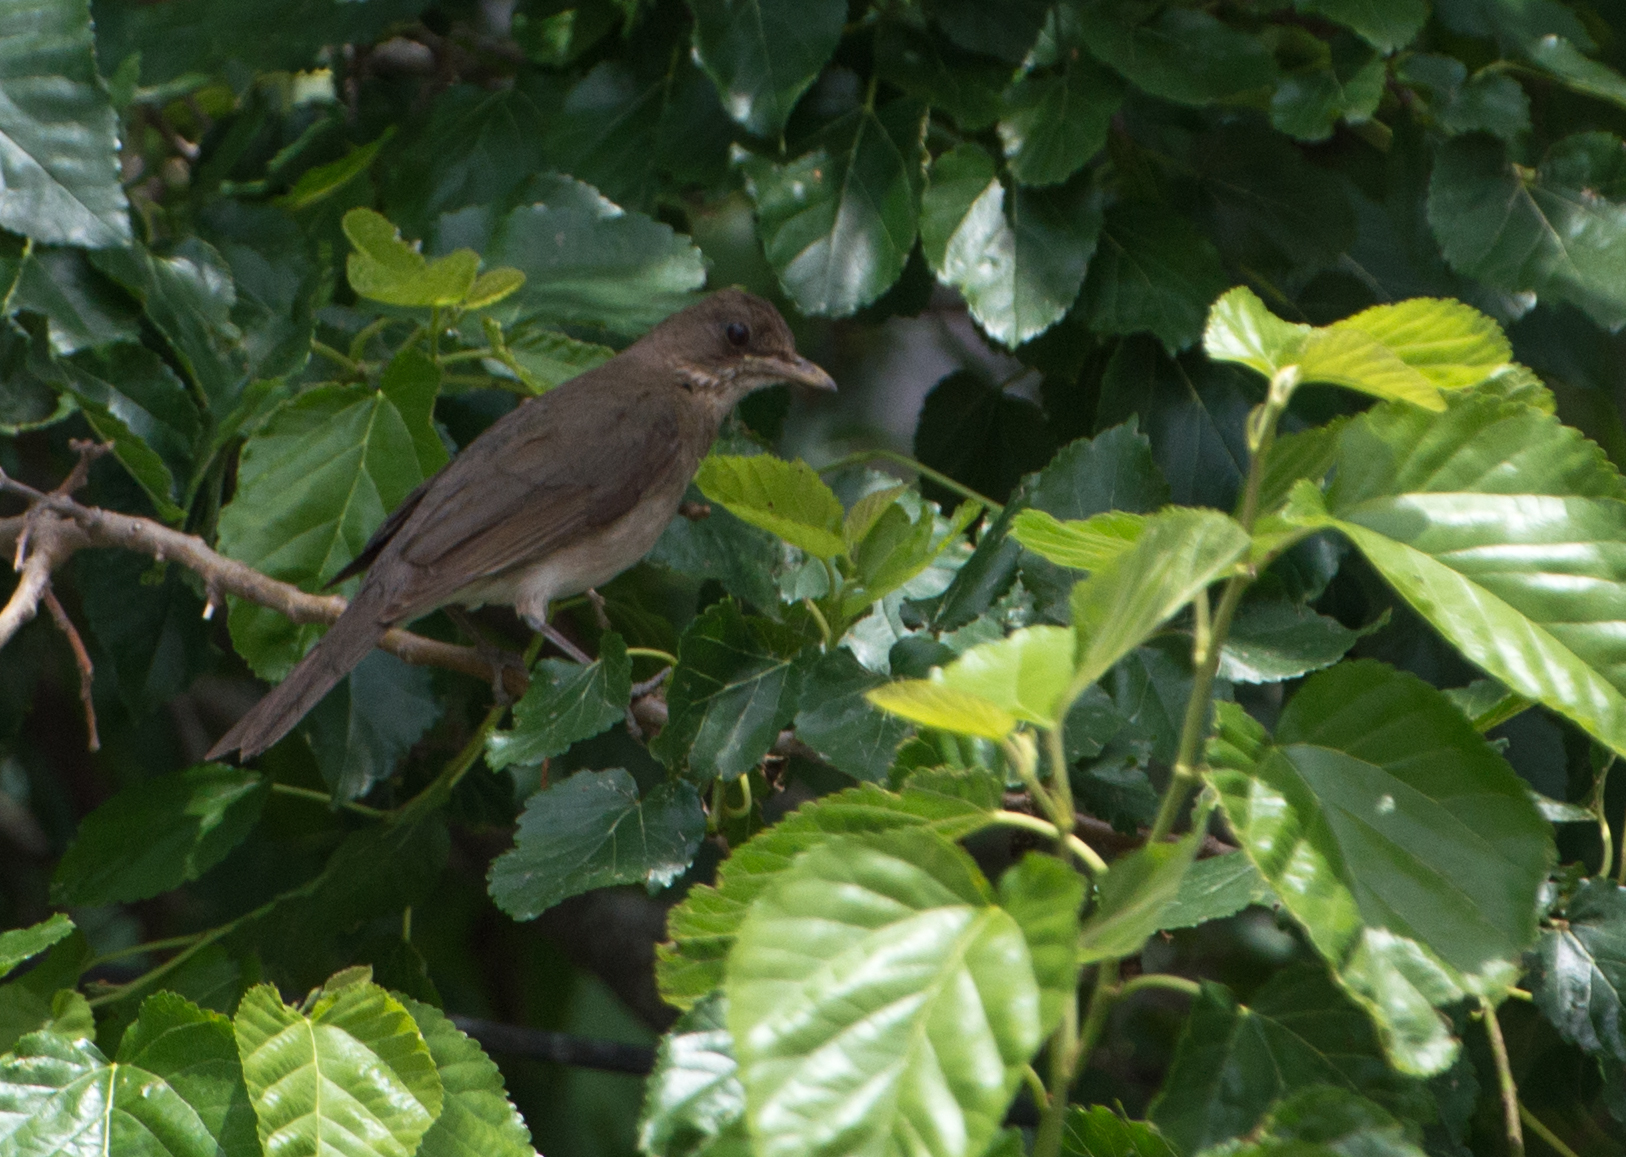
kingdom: Animalia
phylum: Chordata
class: Aves
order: Passeriformes
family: Turdidae
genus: Turdus
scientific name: Turdus amaurochalinus
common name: Creamy-bellied thrush
